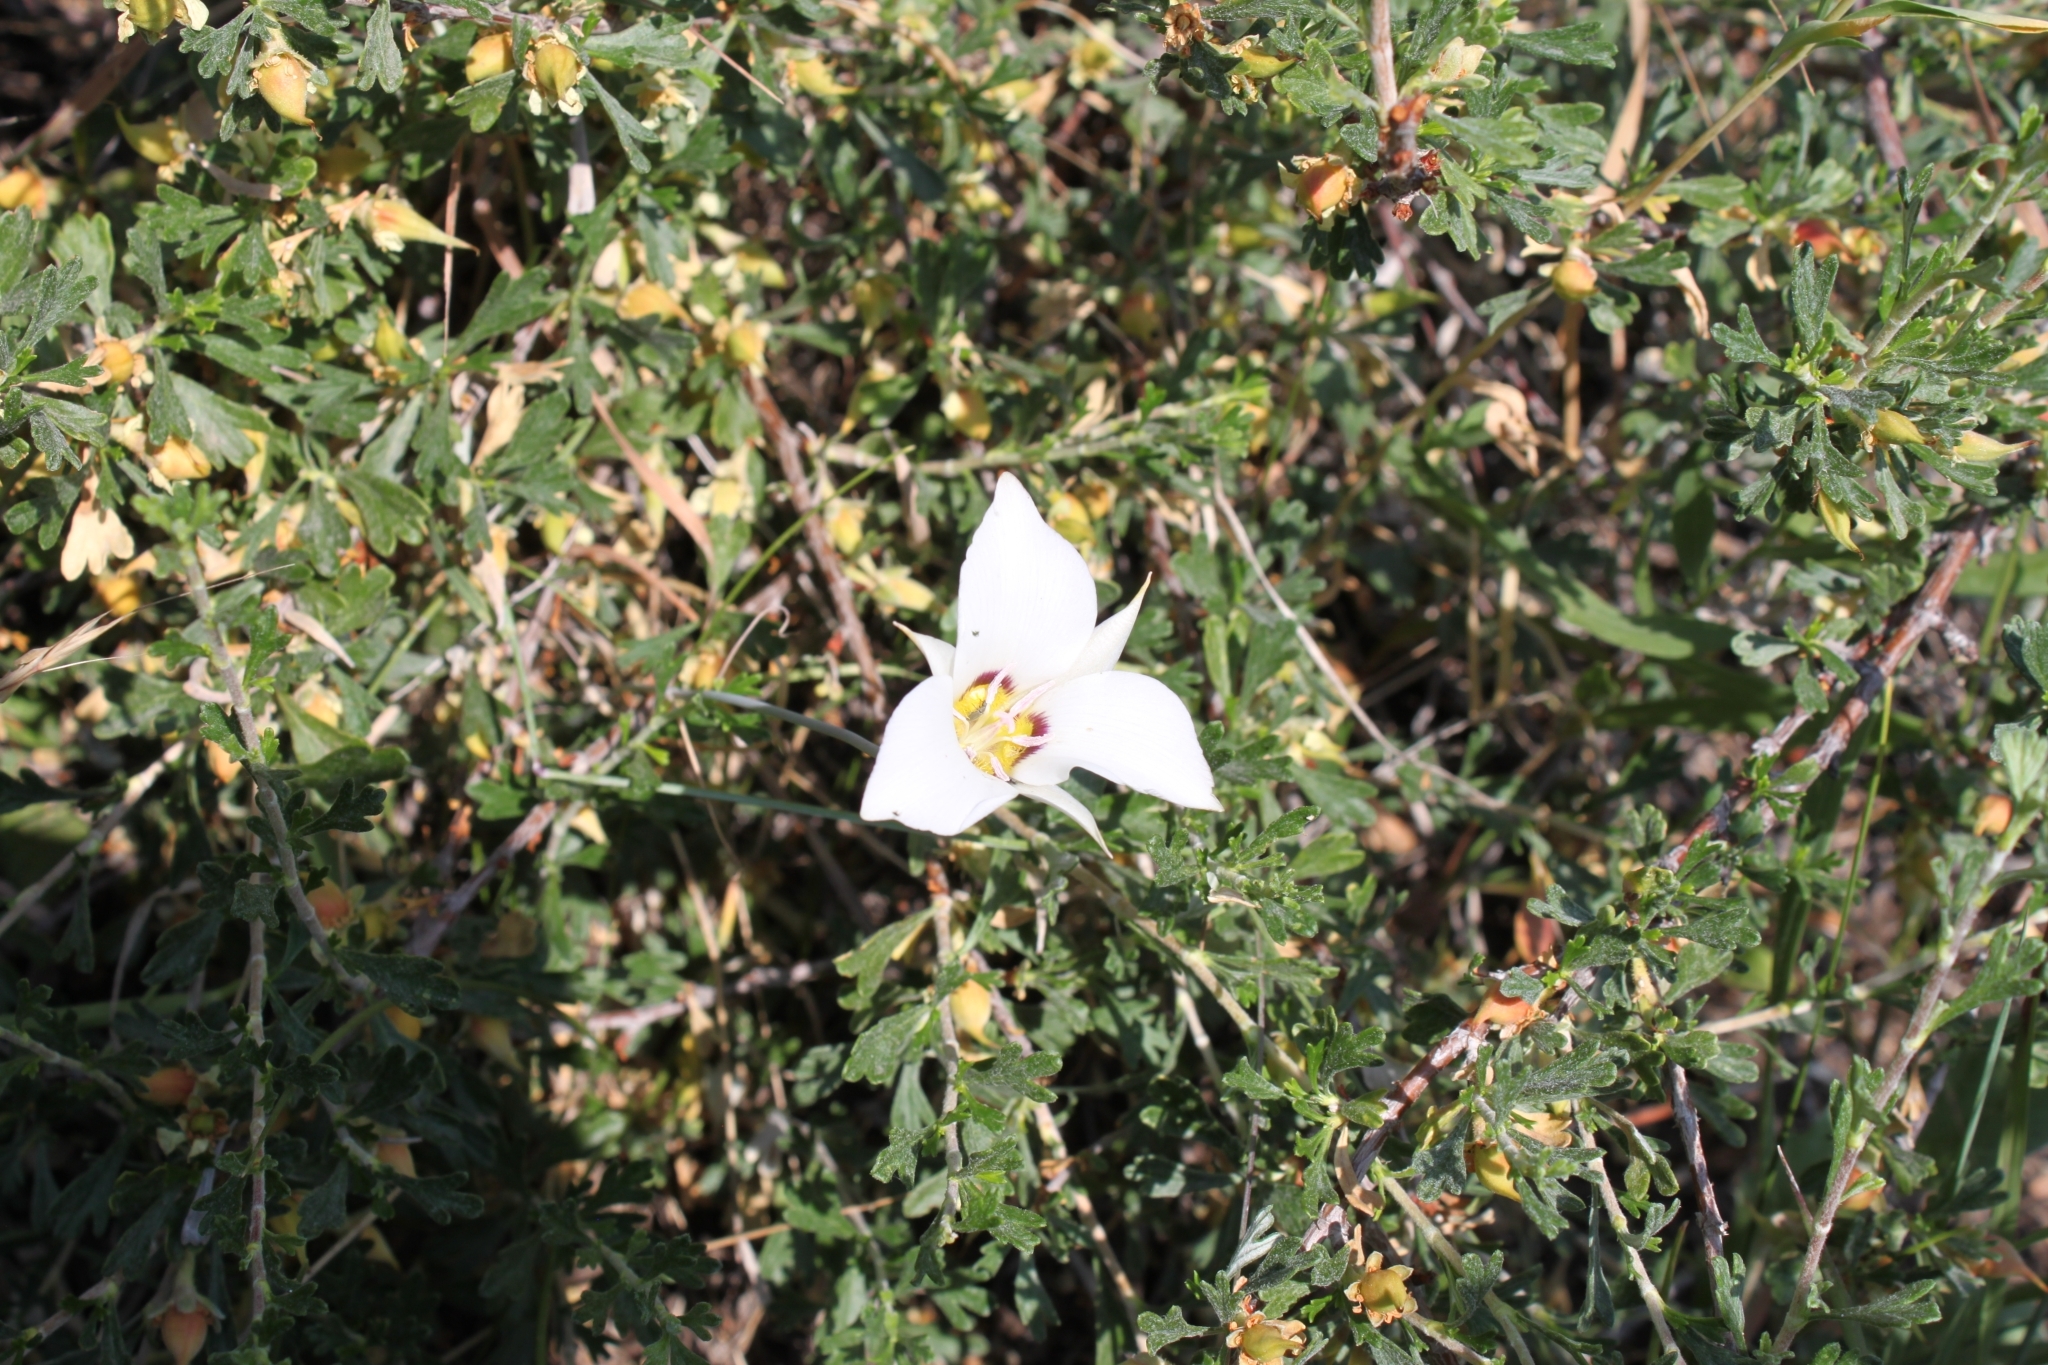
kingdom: Plantae
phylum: Tracheophyta
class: Liliopsida
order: Liliales
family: Liliaceae
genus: Calochortus
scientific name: Calochortus nuttallii
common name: Sego-lily
